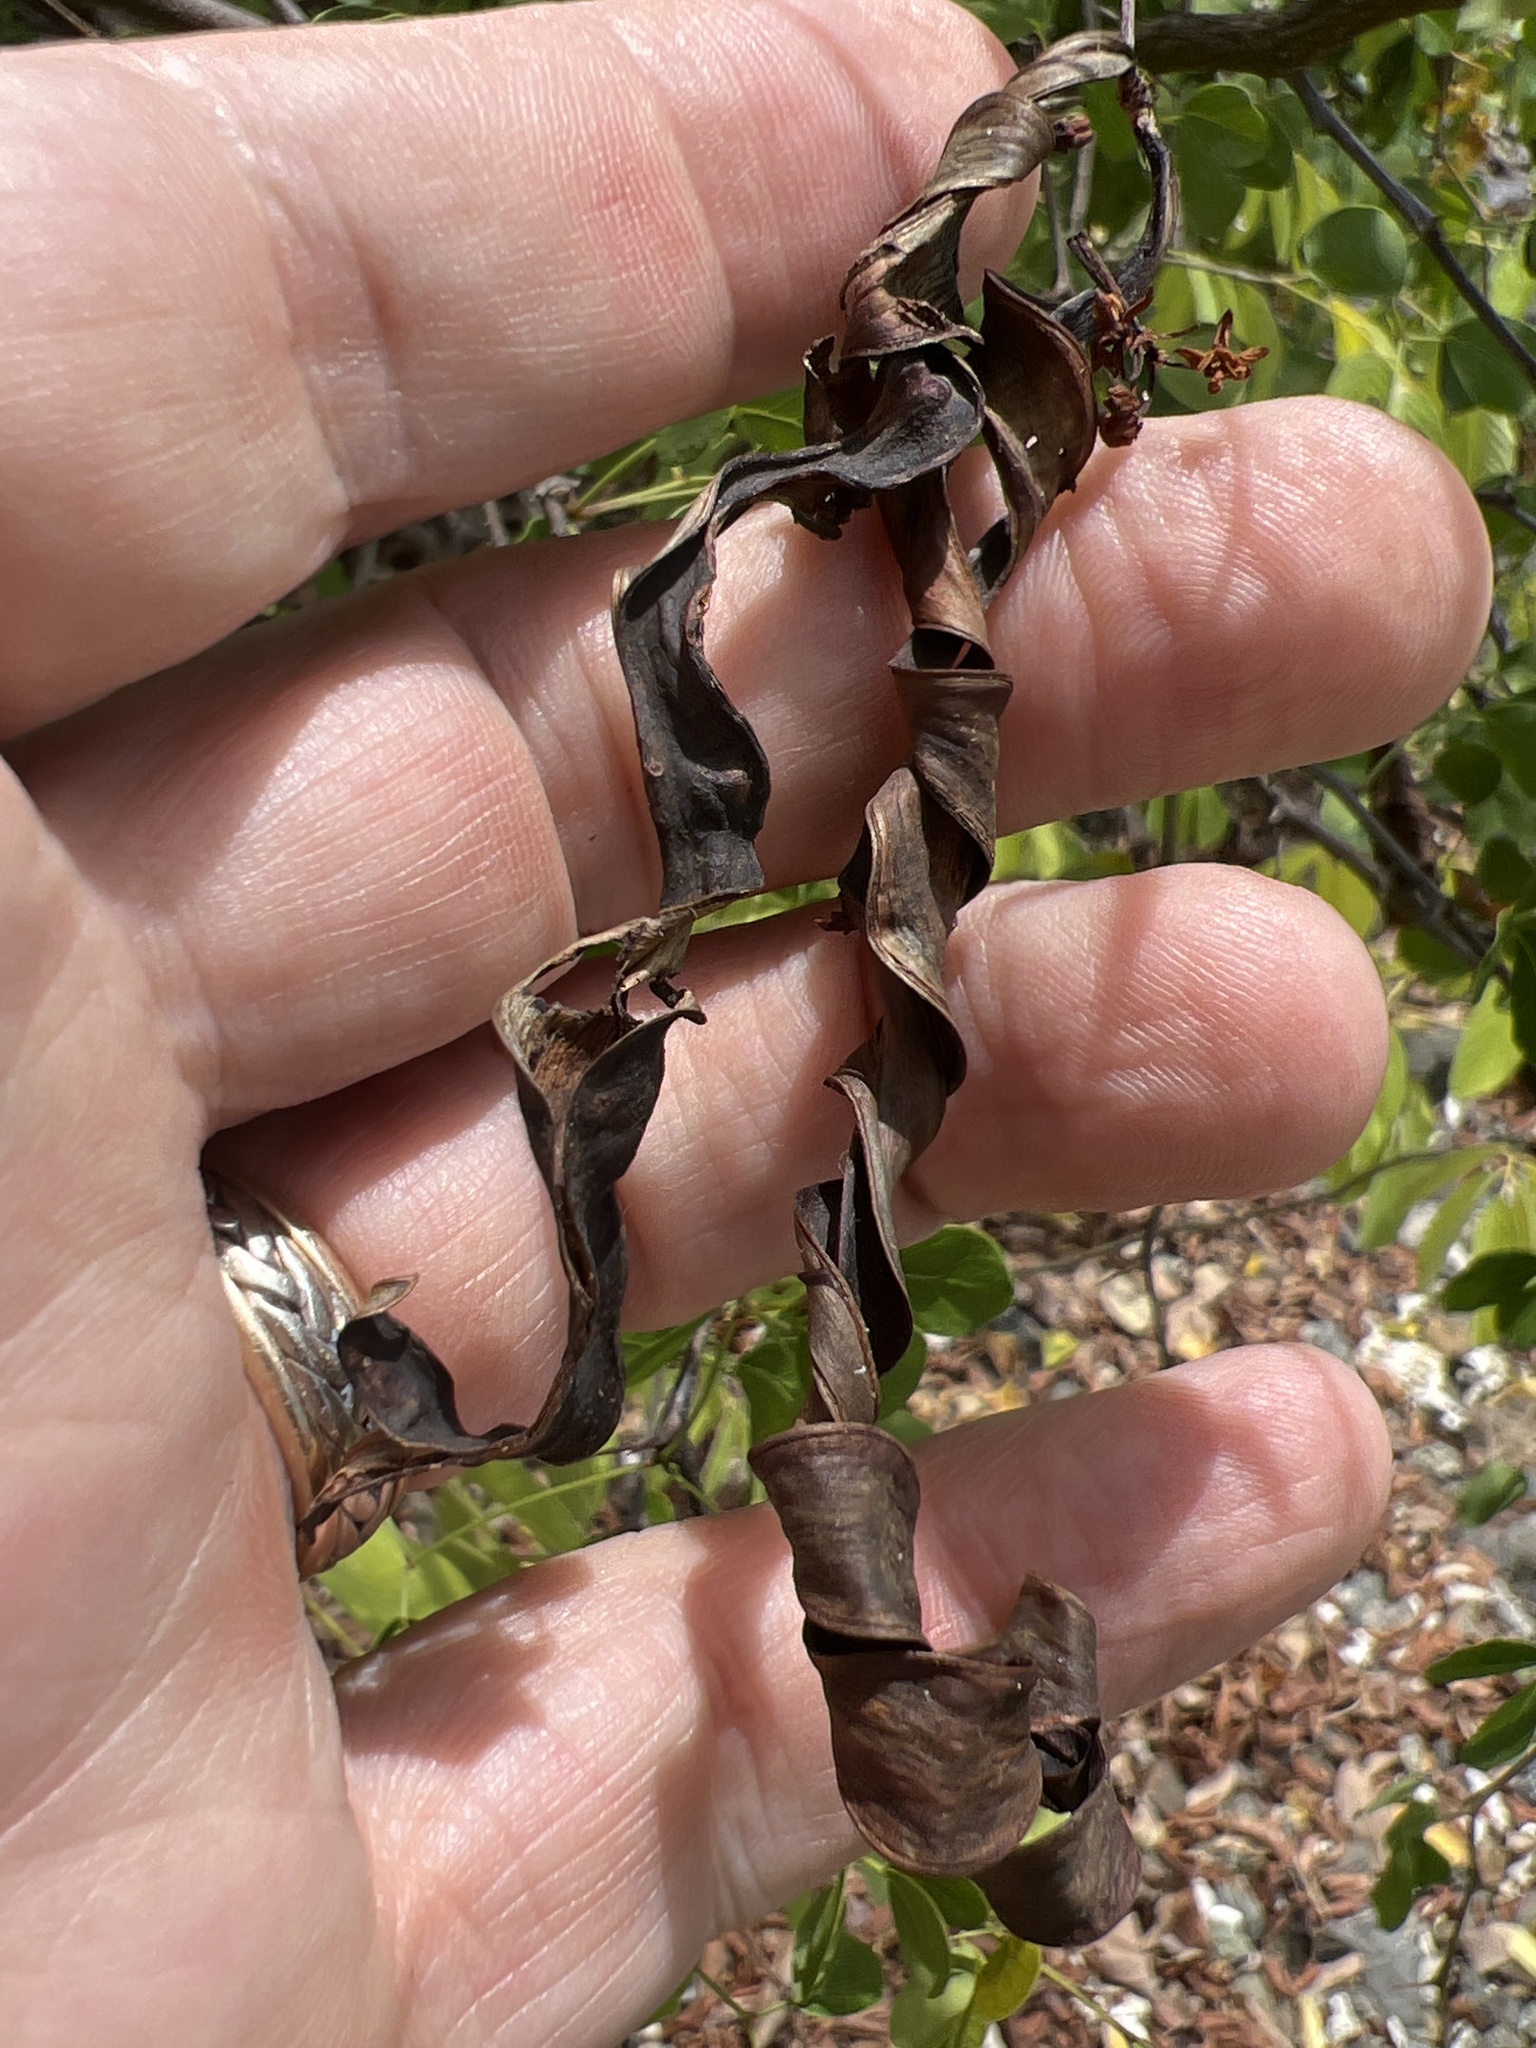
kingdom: Plantae
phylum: Tracheophyta
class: Magnoliopsida
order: Fabales
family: Fabaceae
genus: Pithecellobium
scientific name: Pithecellobium unguis-cati
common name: Cat's-claw
